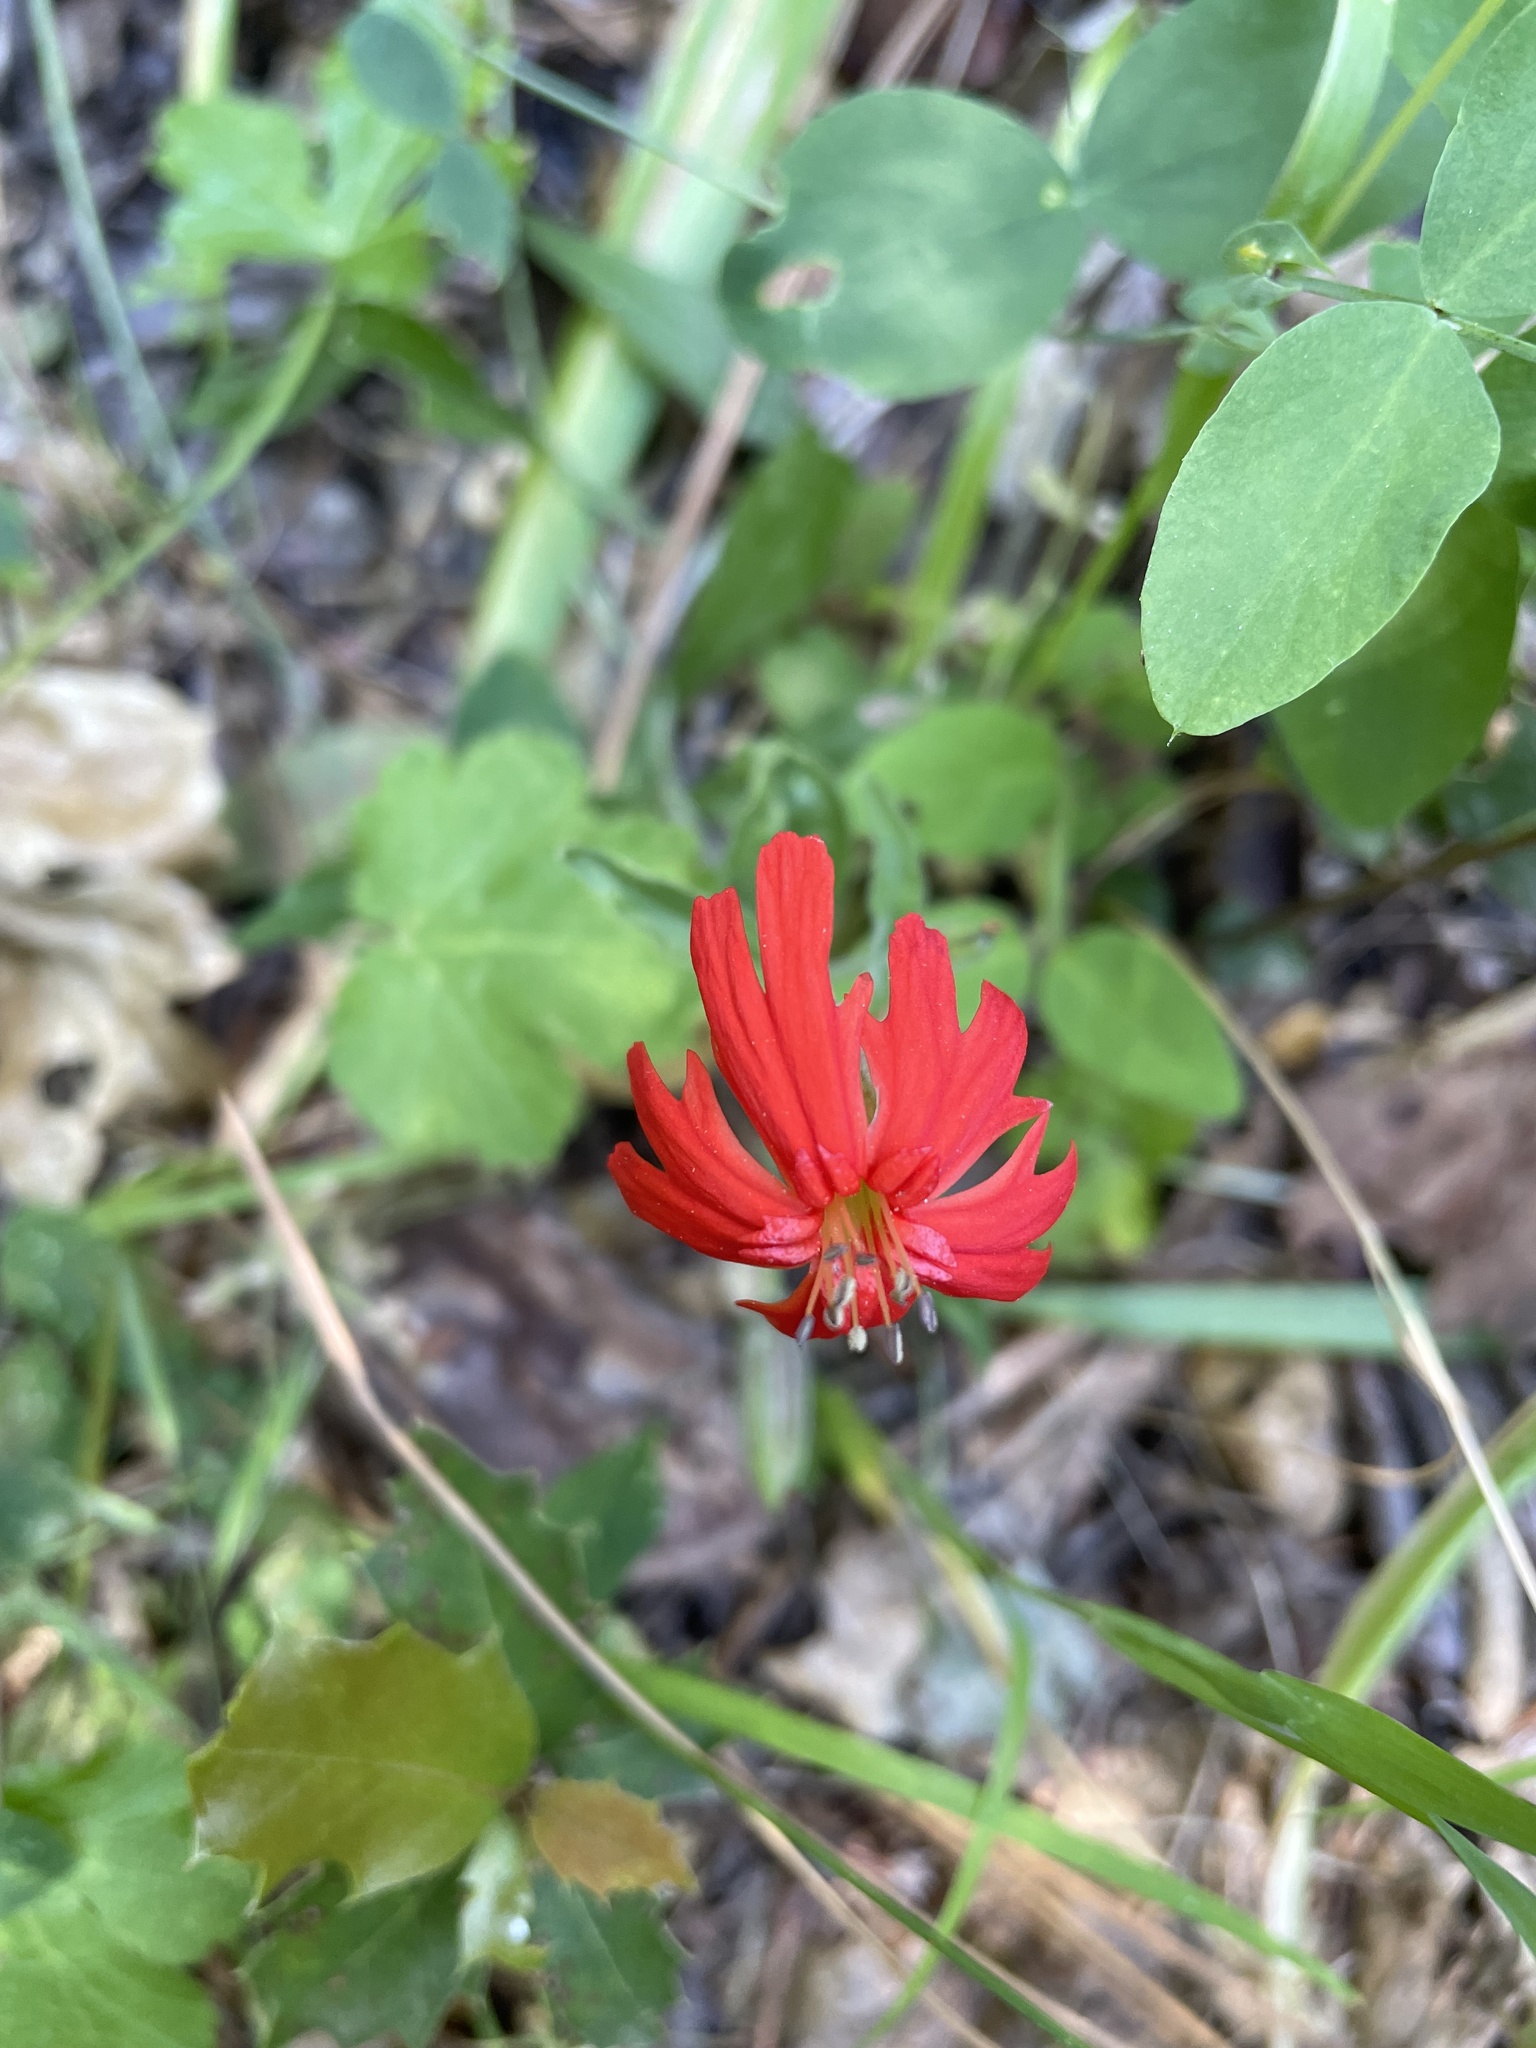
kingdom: Plantae
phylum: Tracheophyta
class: Magnoliopsida
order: Caryophyllales
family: Caryophyllaceae
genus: Silene
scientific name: Silene laciniata
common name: Indian-pink
